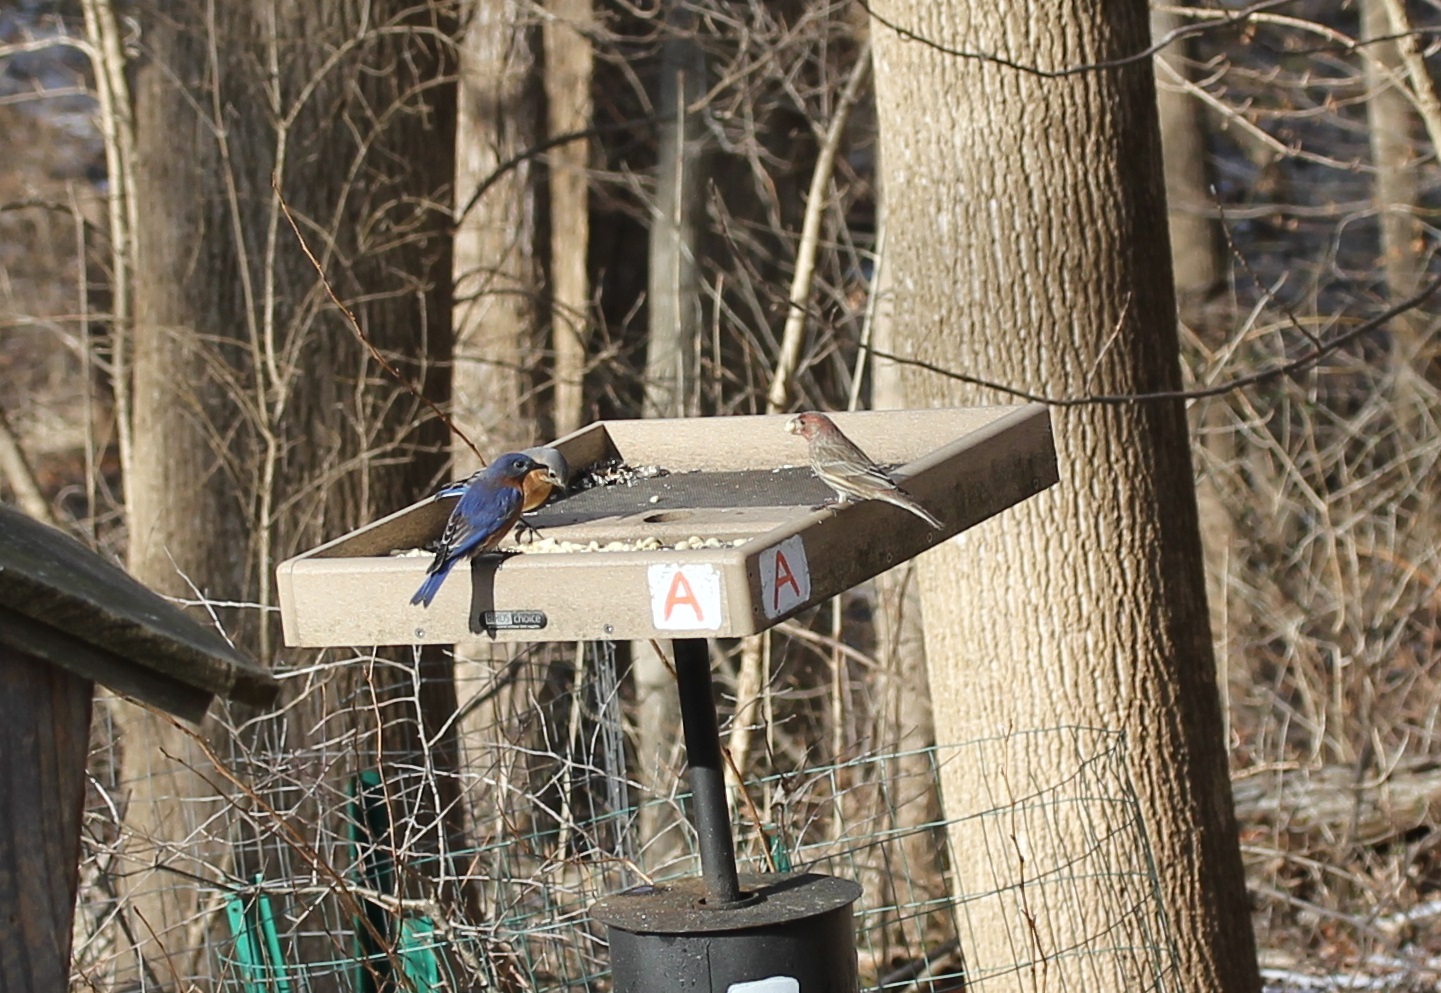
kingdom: Animalia
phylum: Chordata
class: Aves
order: Passeriformes
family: Fringillidae
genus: Haemorhous
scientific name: Haemorhous mexicanus
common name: House finch
